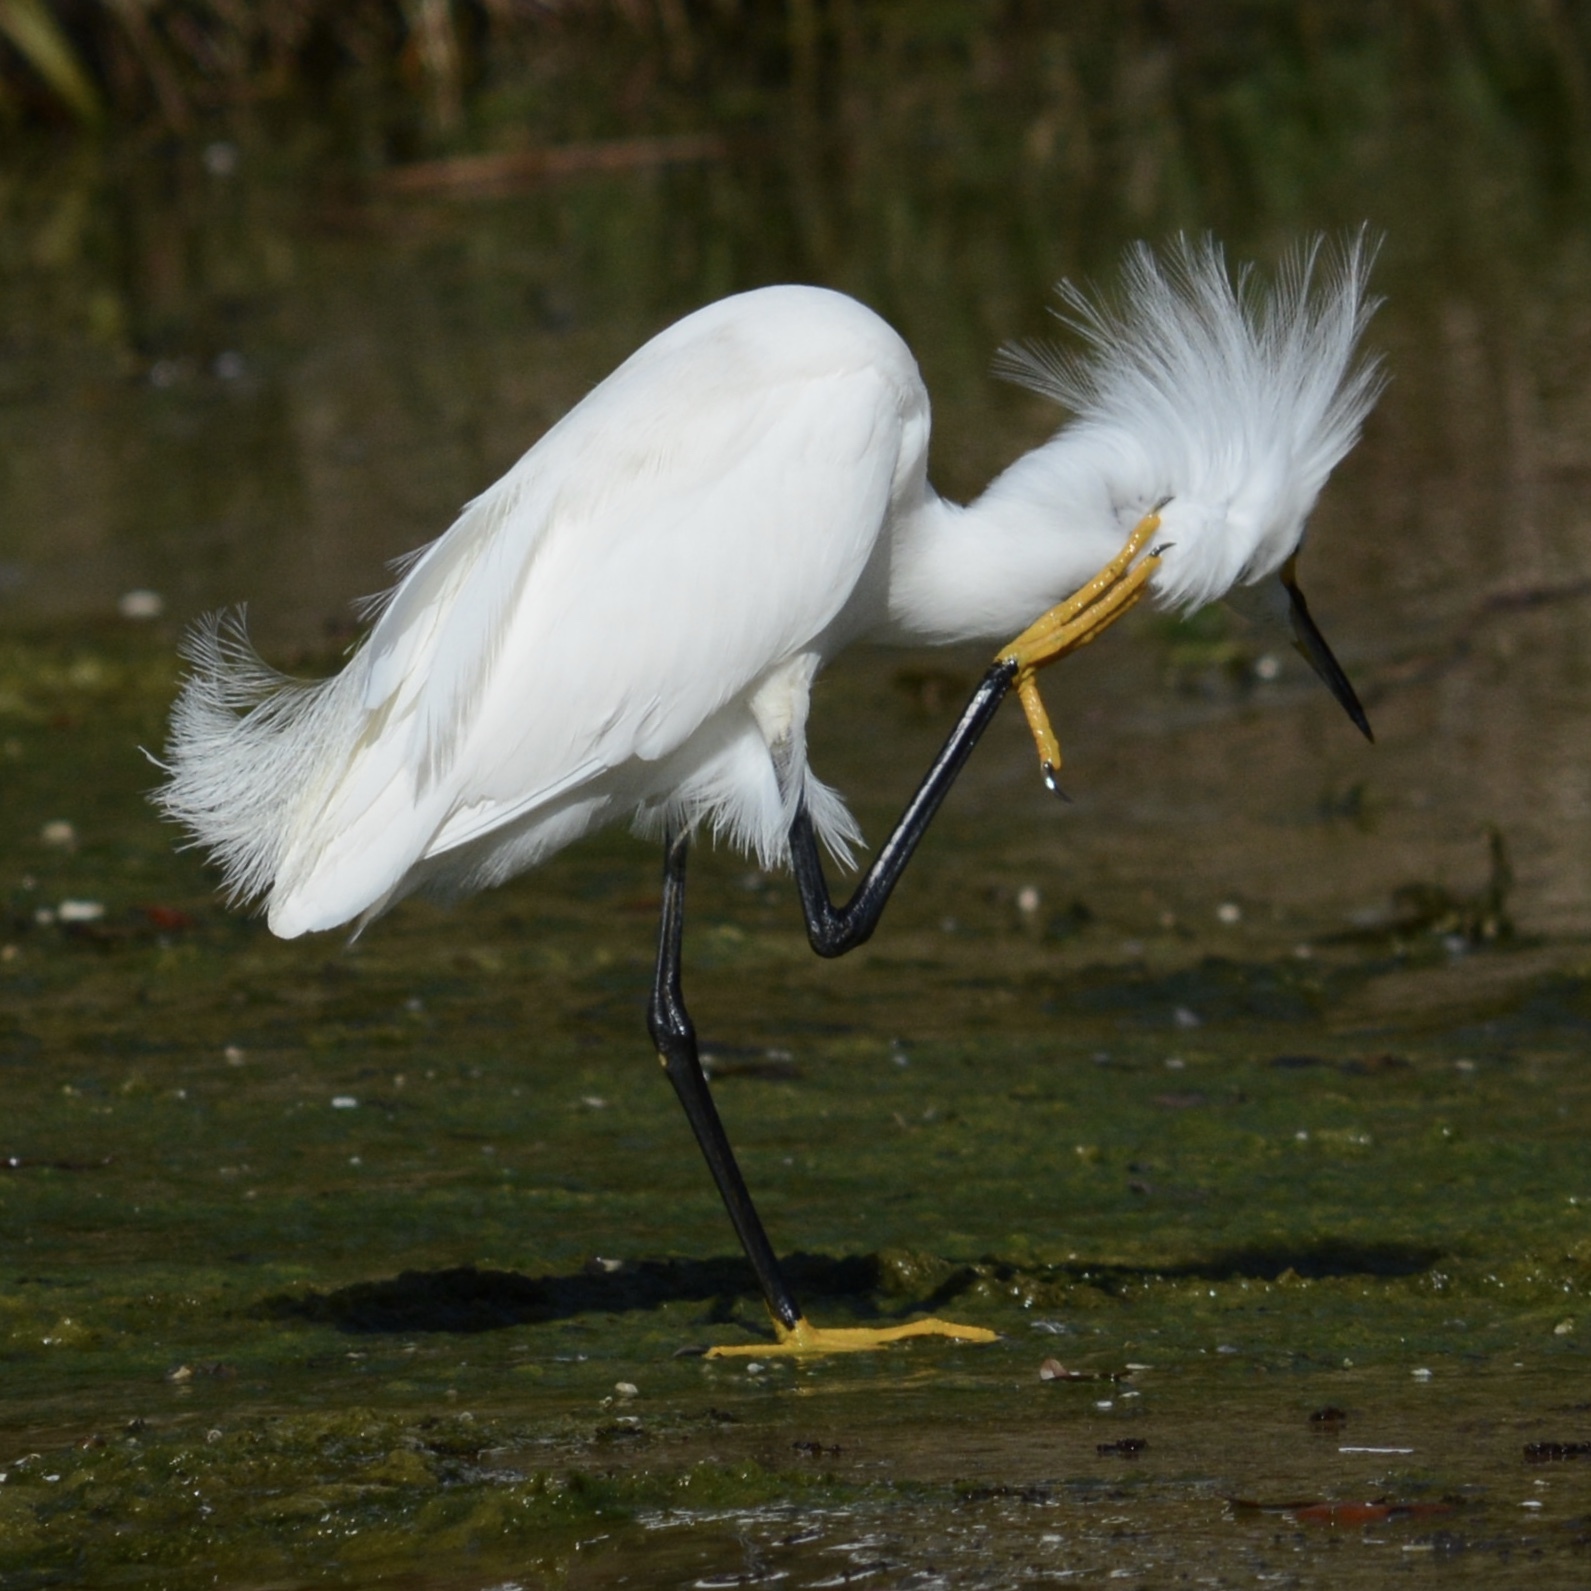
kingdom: Animalia
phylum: Chordata
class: Aves
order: Pelecaniformes
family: Ardeidae
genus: Egretta
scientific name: Egretta thula
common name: Snowy egret
